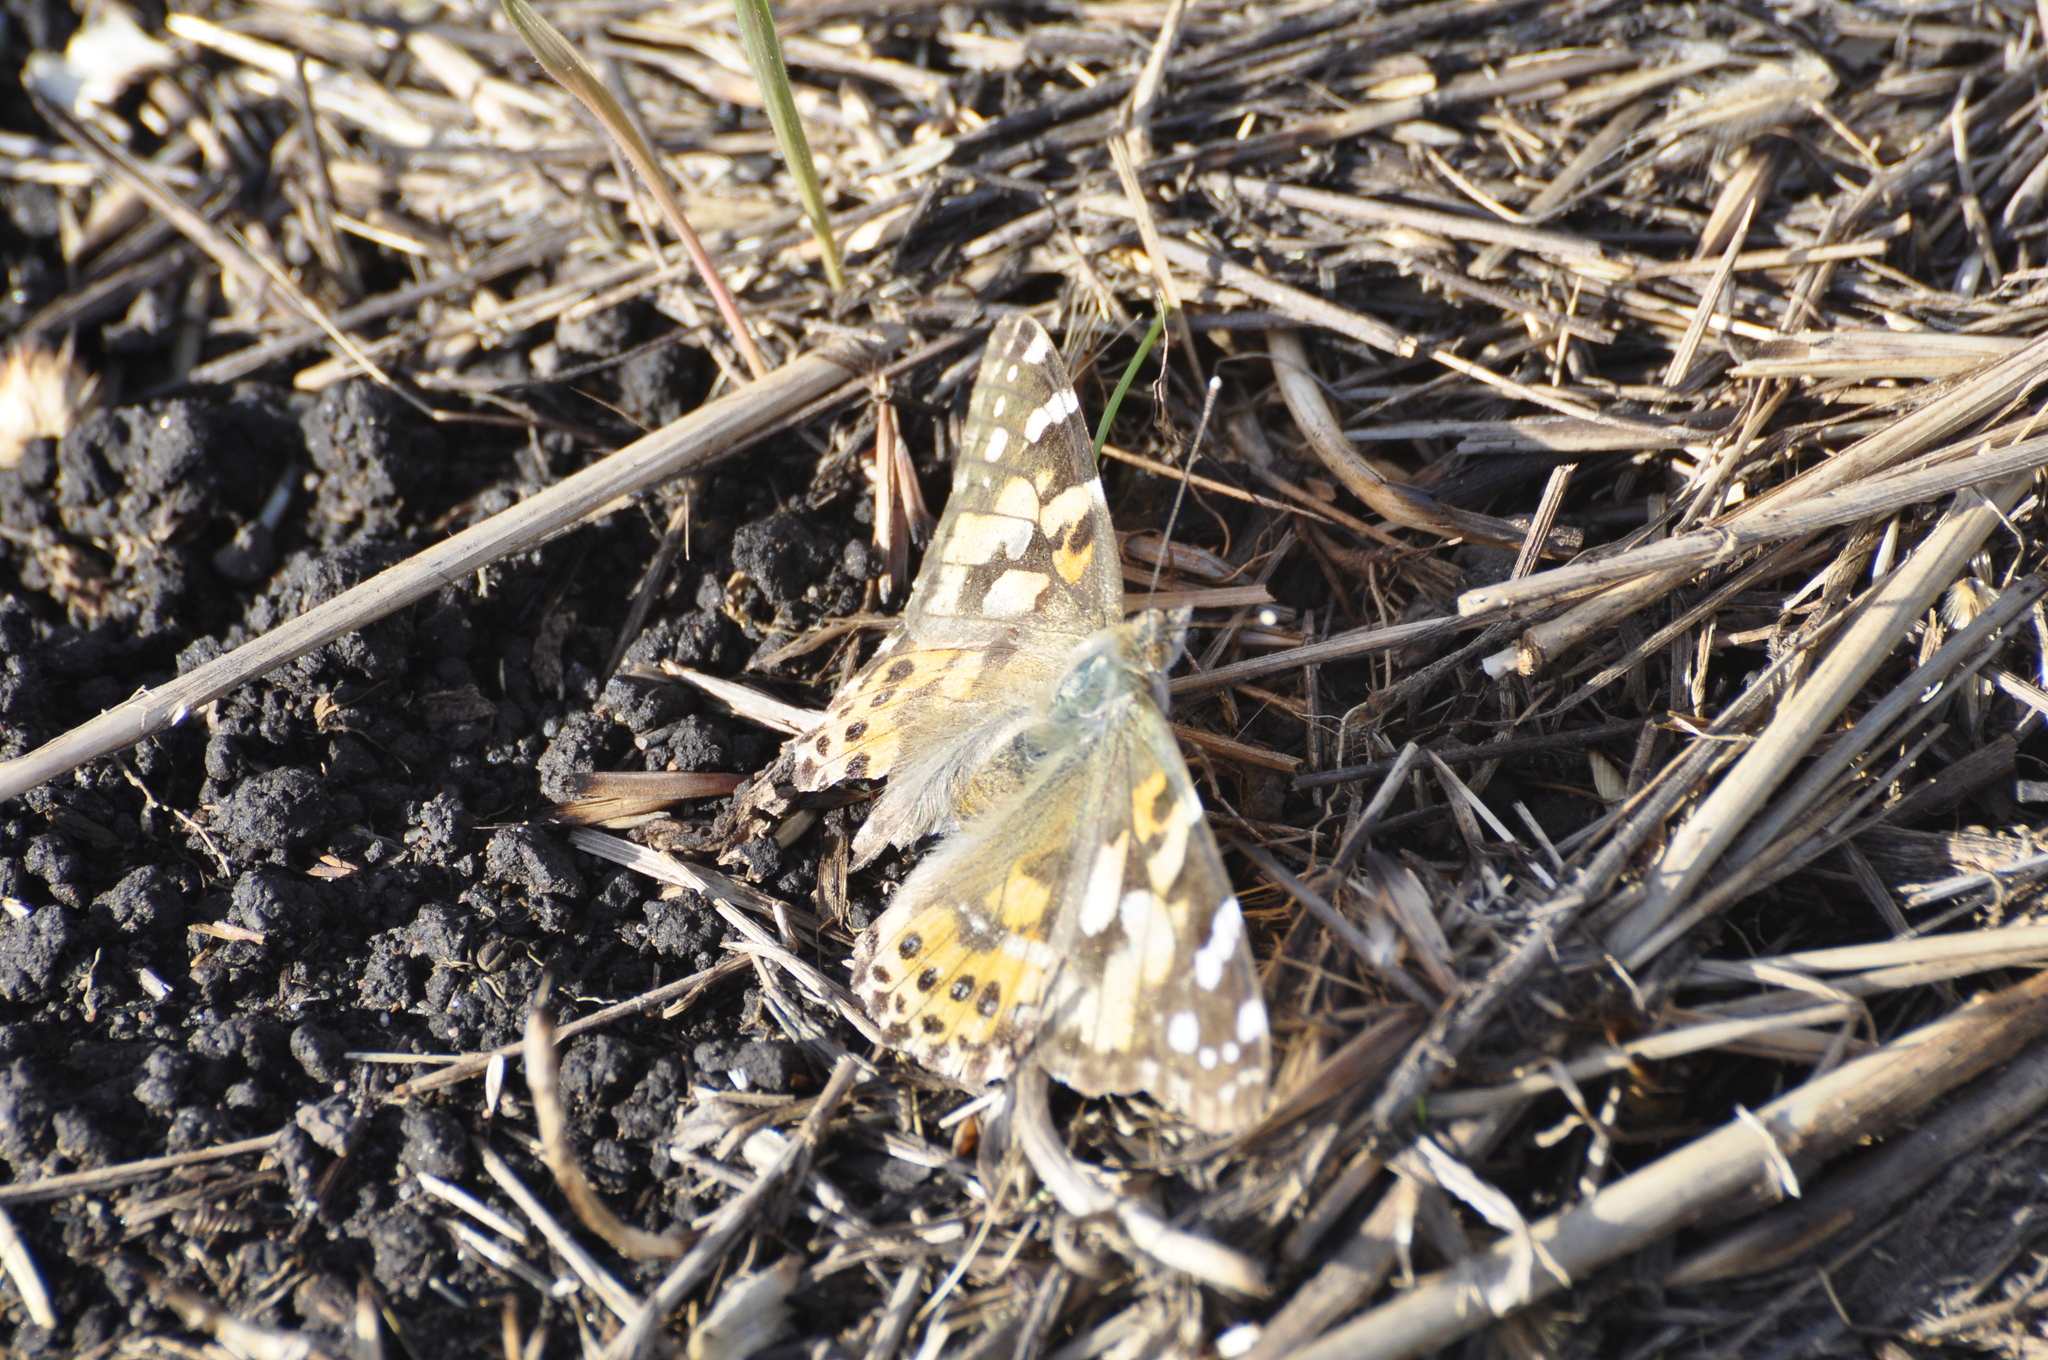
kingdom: Animalia
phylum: Arthropoda
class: Insecta
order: Lepidoptera
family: Nymphalidae
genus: Vanessa
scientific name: Vanessa cardui
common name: Painted lady
